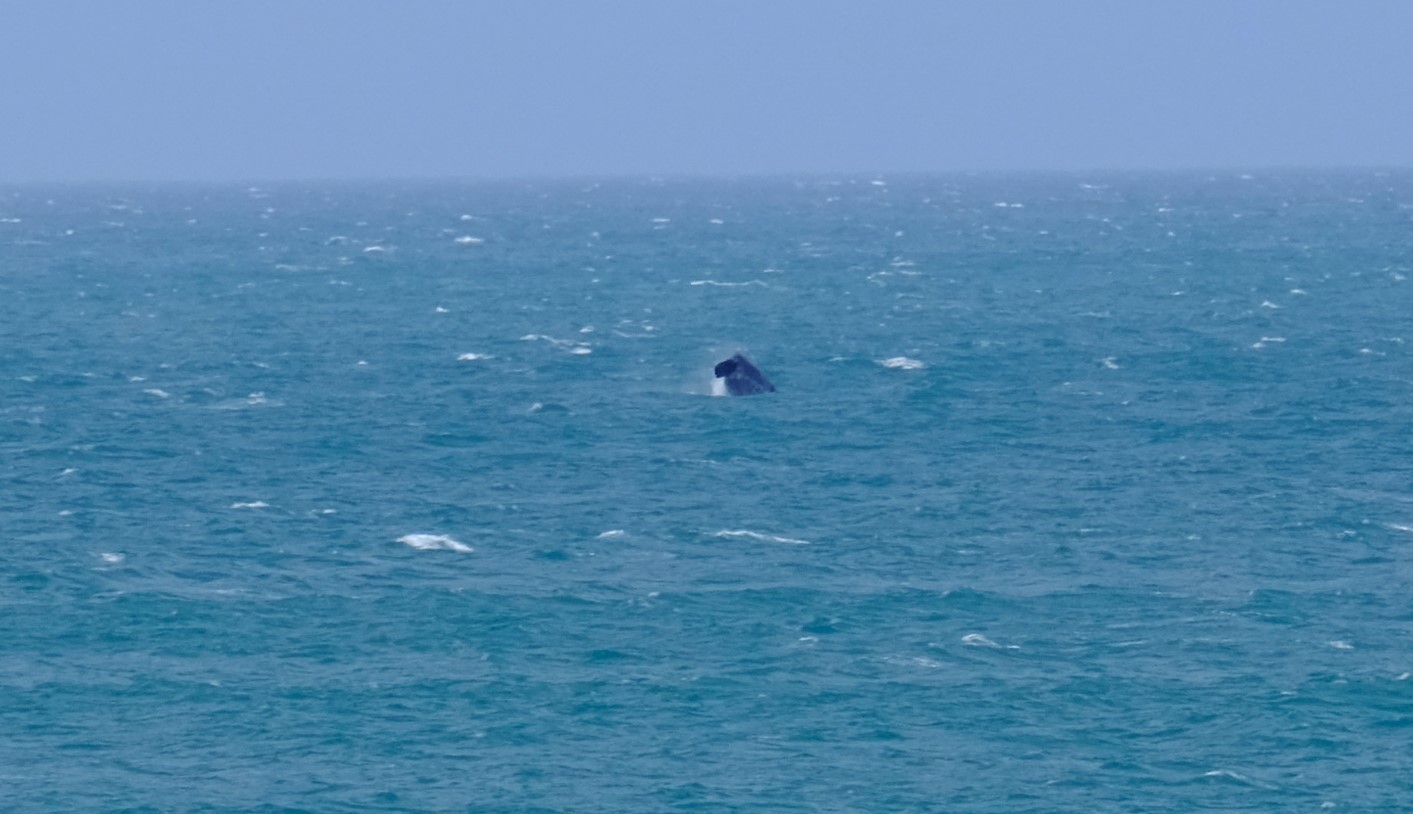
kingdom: Animalia
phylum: Chordata
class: Mammalia
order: Cetacea
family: Balaenidae
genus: Eubalaena
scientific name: Eubalaena australis
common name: Southern right whale
